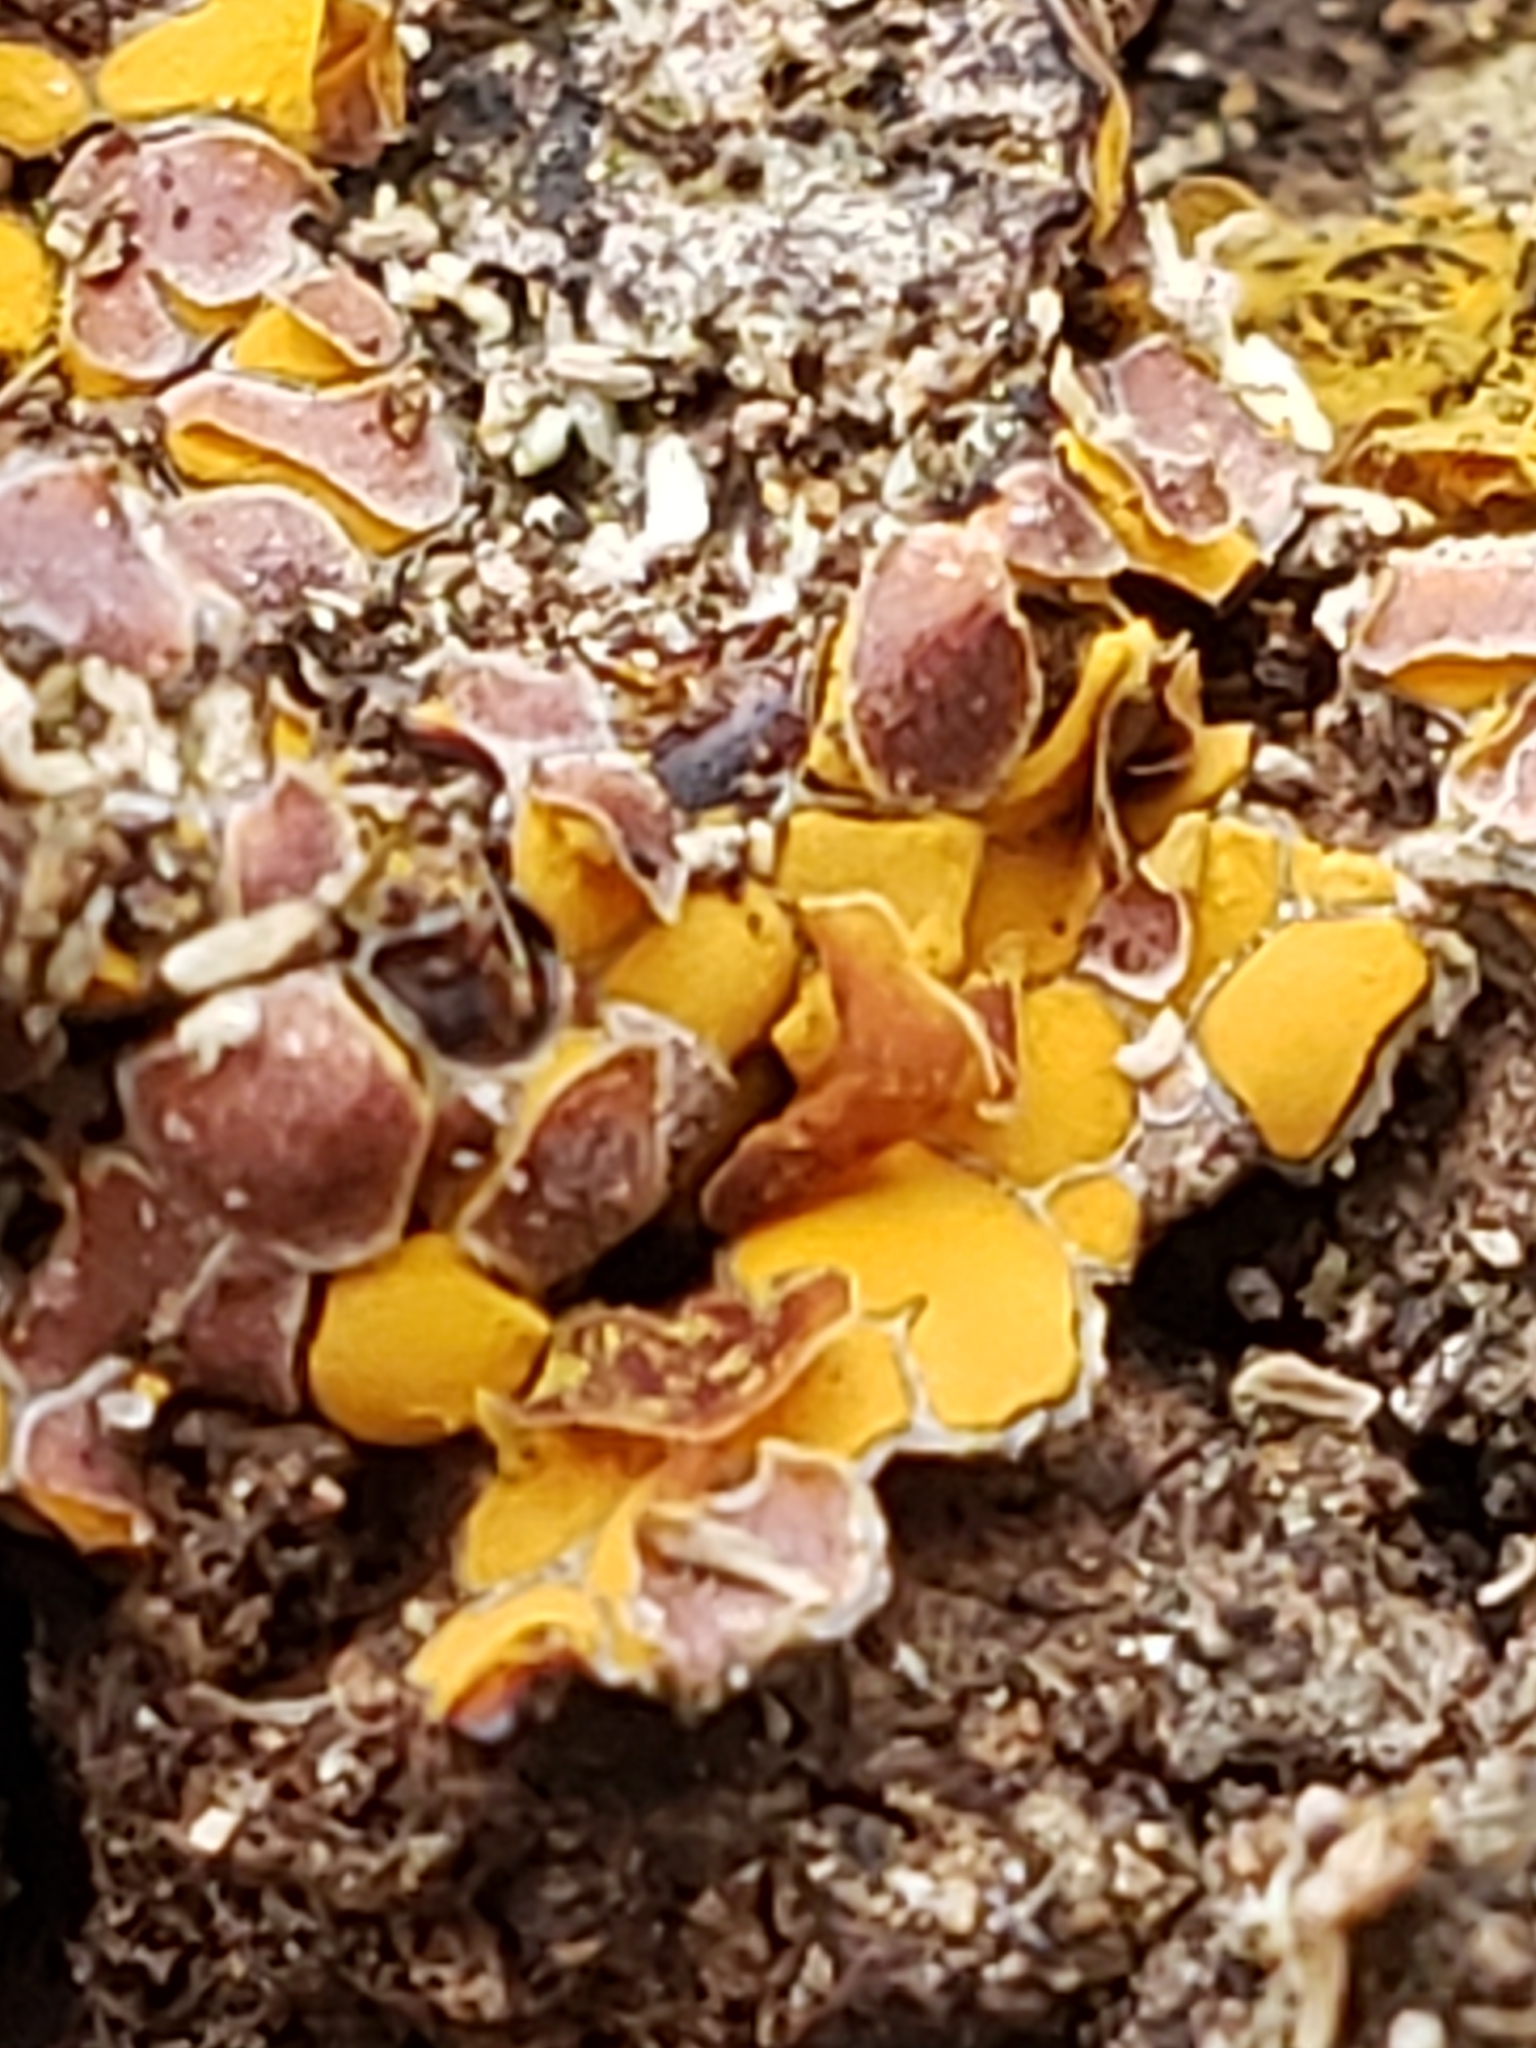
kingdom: Protozoa
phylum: Mycetozoa
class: Myxomycetes
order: Trichiales
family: Trichiaceae
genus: Perichaena
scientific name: Perichaena depressa
